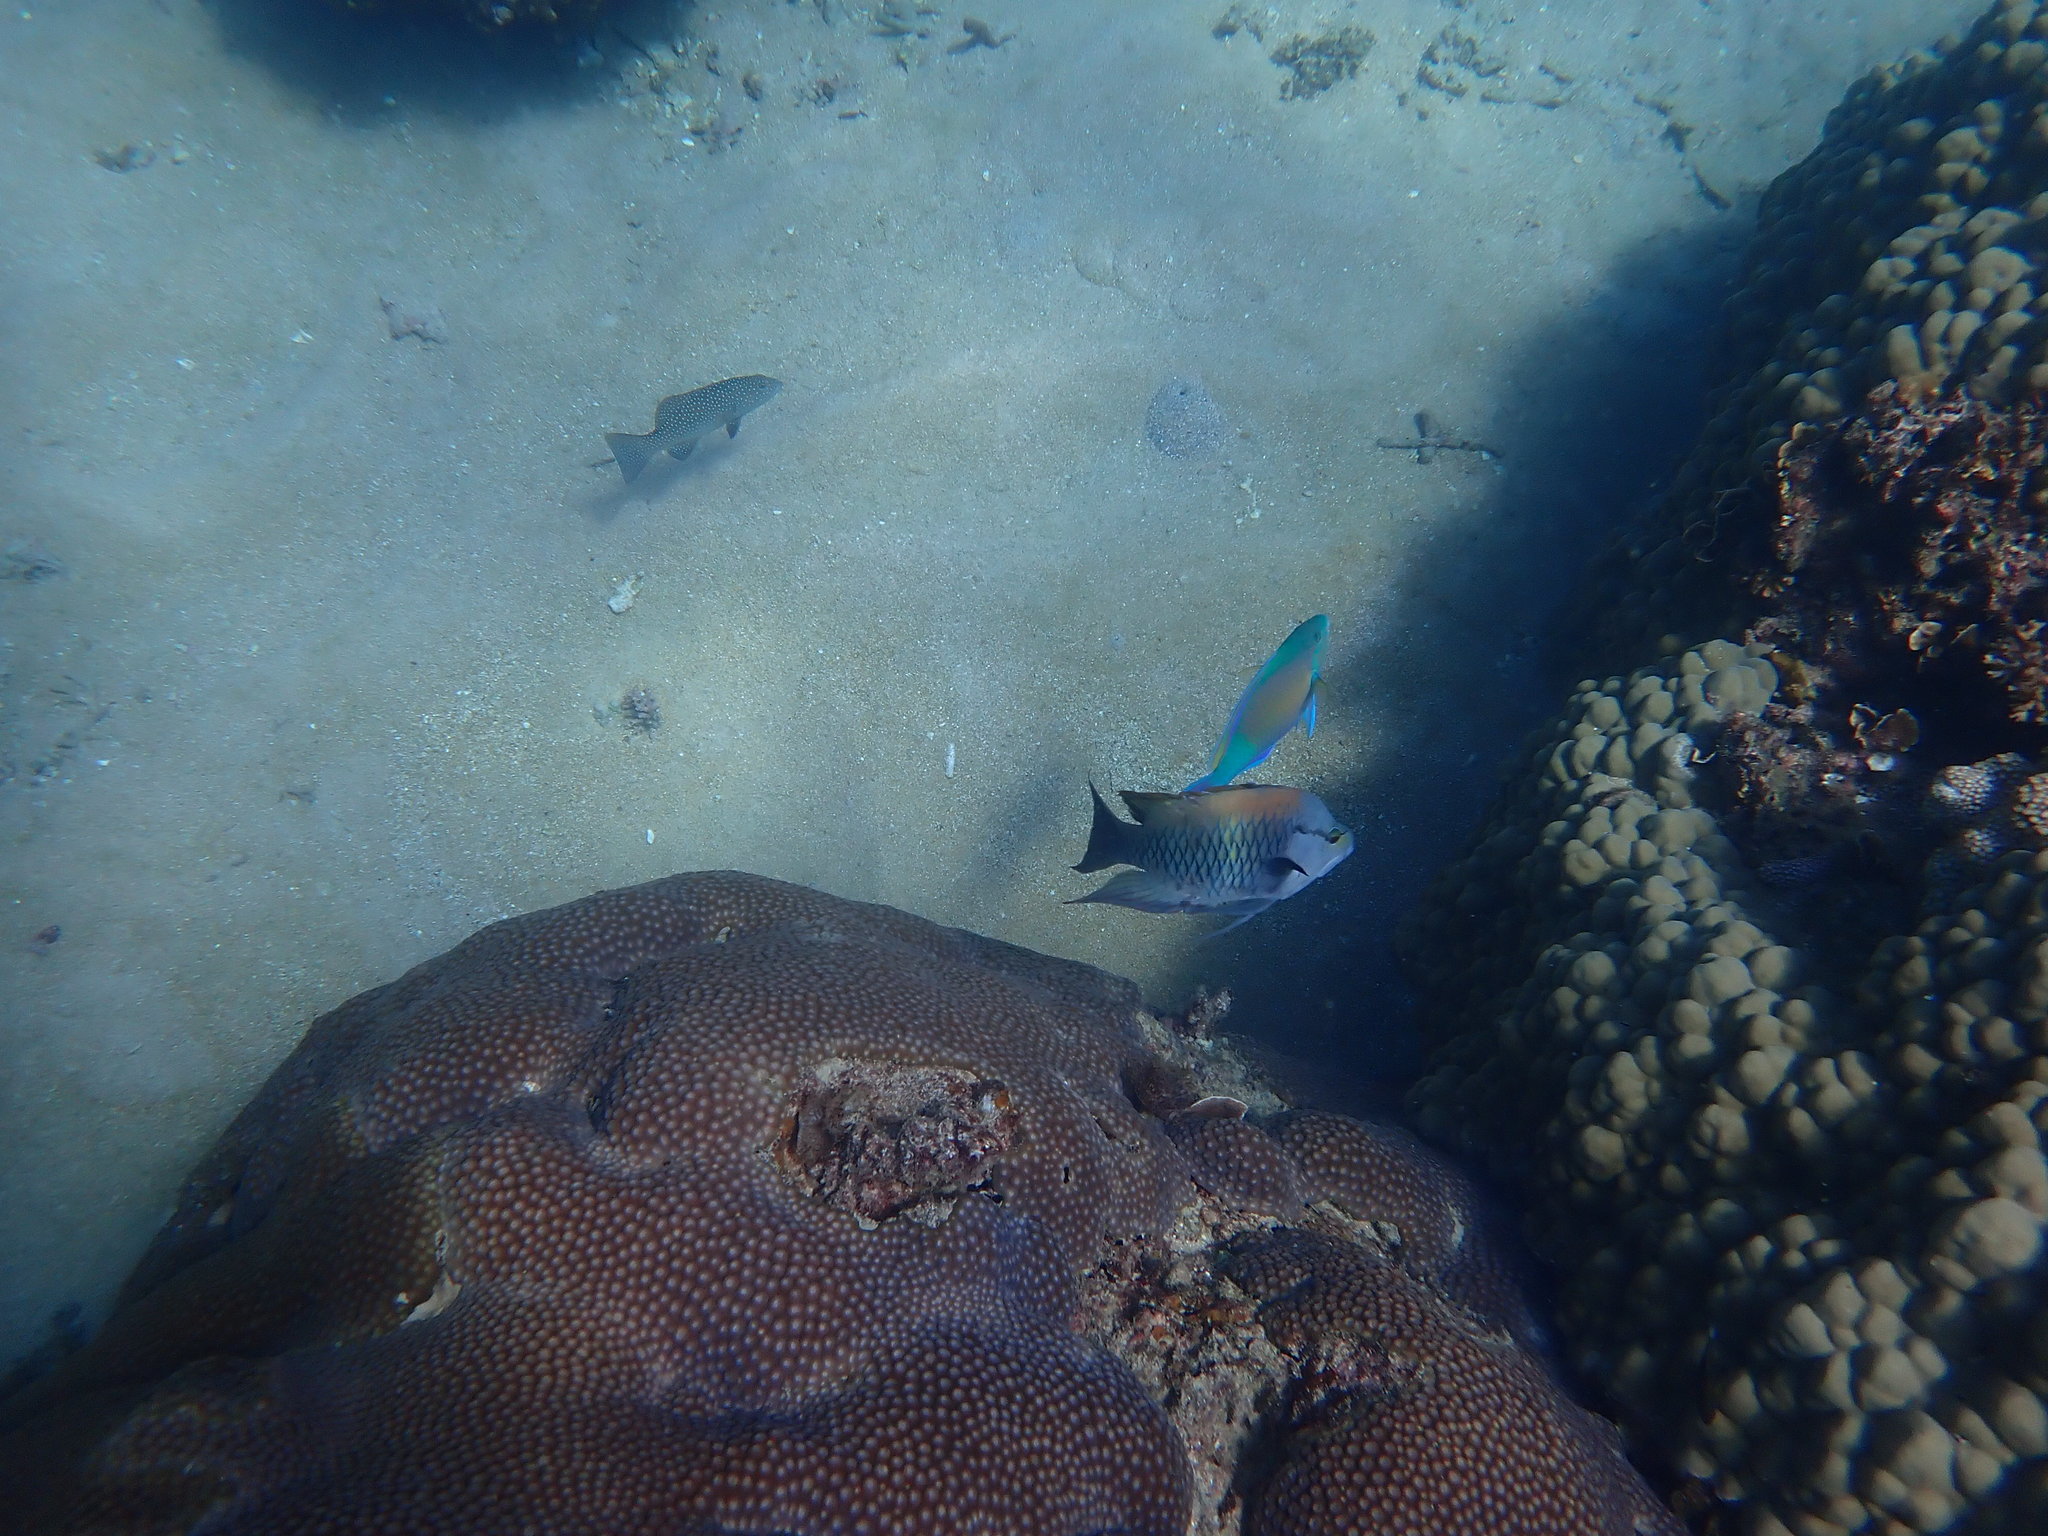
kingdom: Animalia
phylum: Chordata
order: Perciformes
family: Labridae
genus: Epibulus
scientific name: Epibulus insidiator
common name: Slingjaw wrasse
